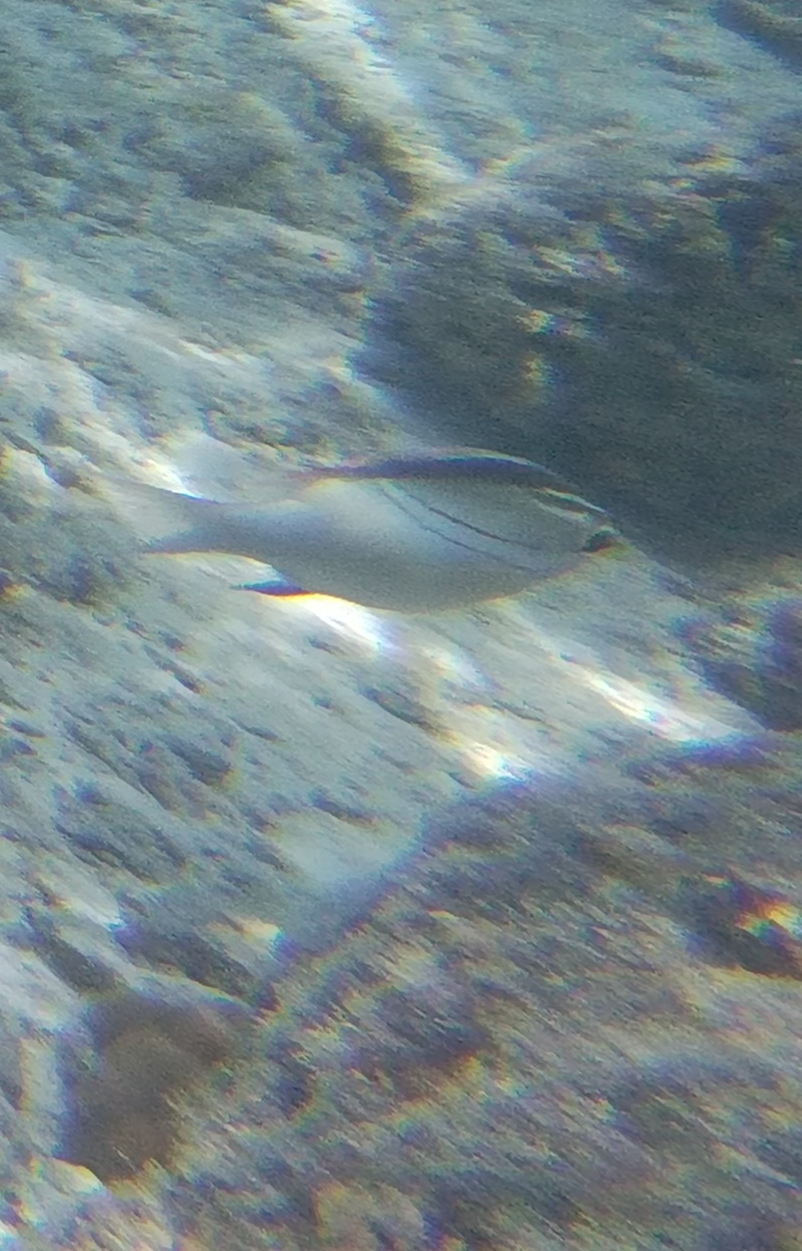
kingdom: Animalia
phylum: Chordata
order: Perciformes
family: Nemipteridae
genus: Scolopsis
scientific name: Scolopsis bilineata
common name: Two-lined monocle bream
